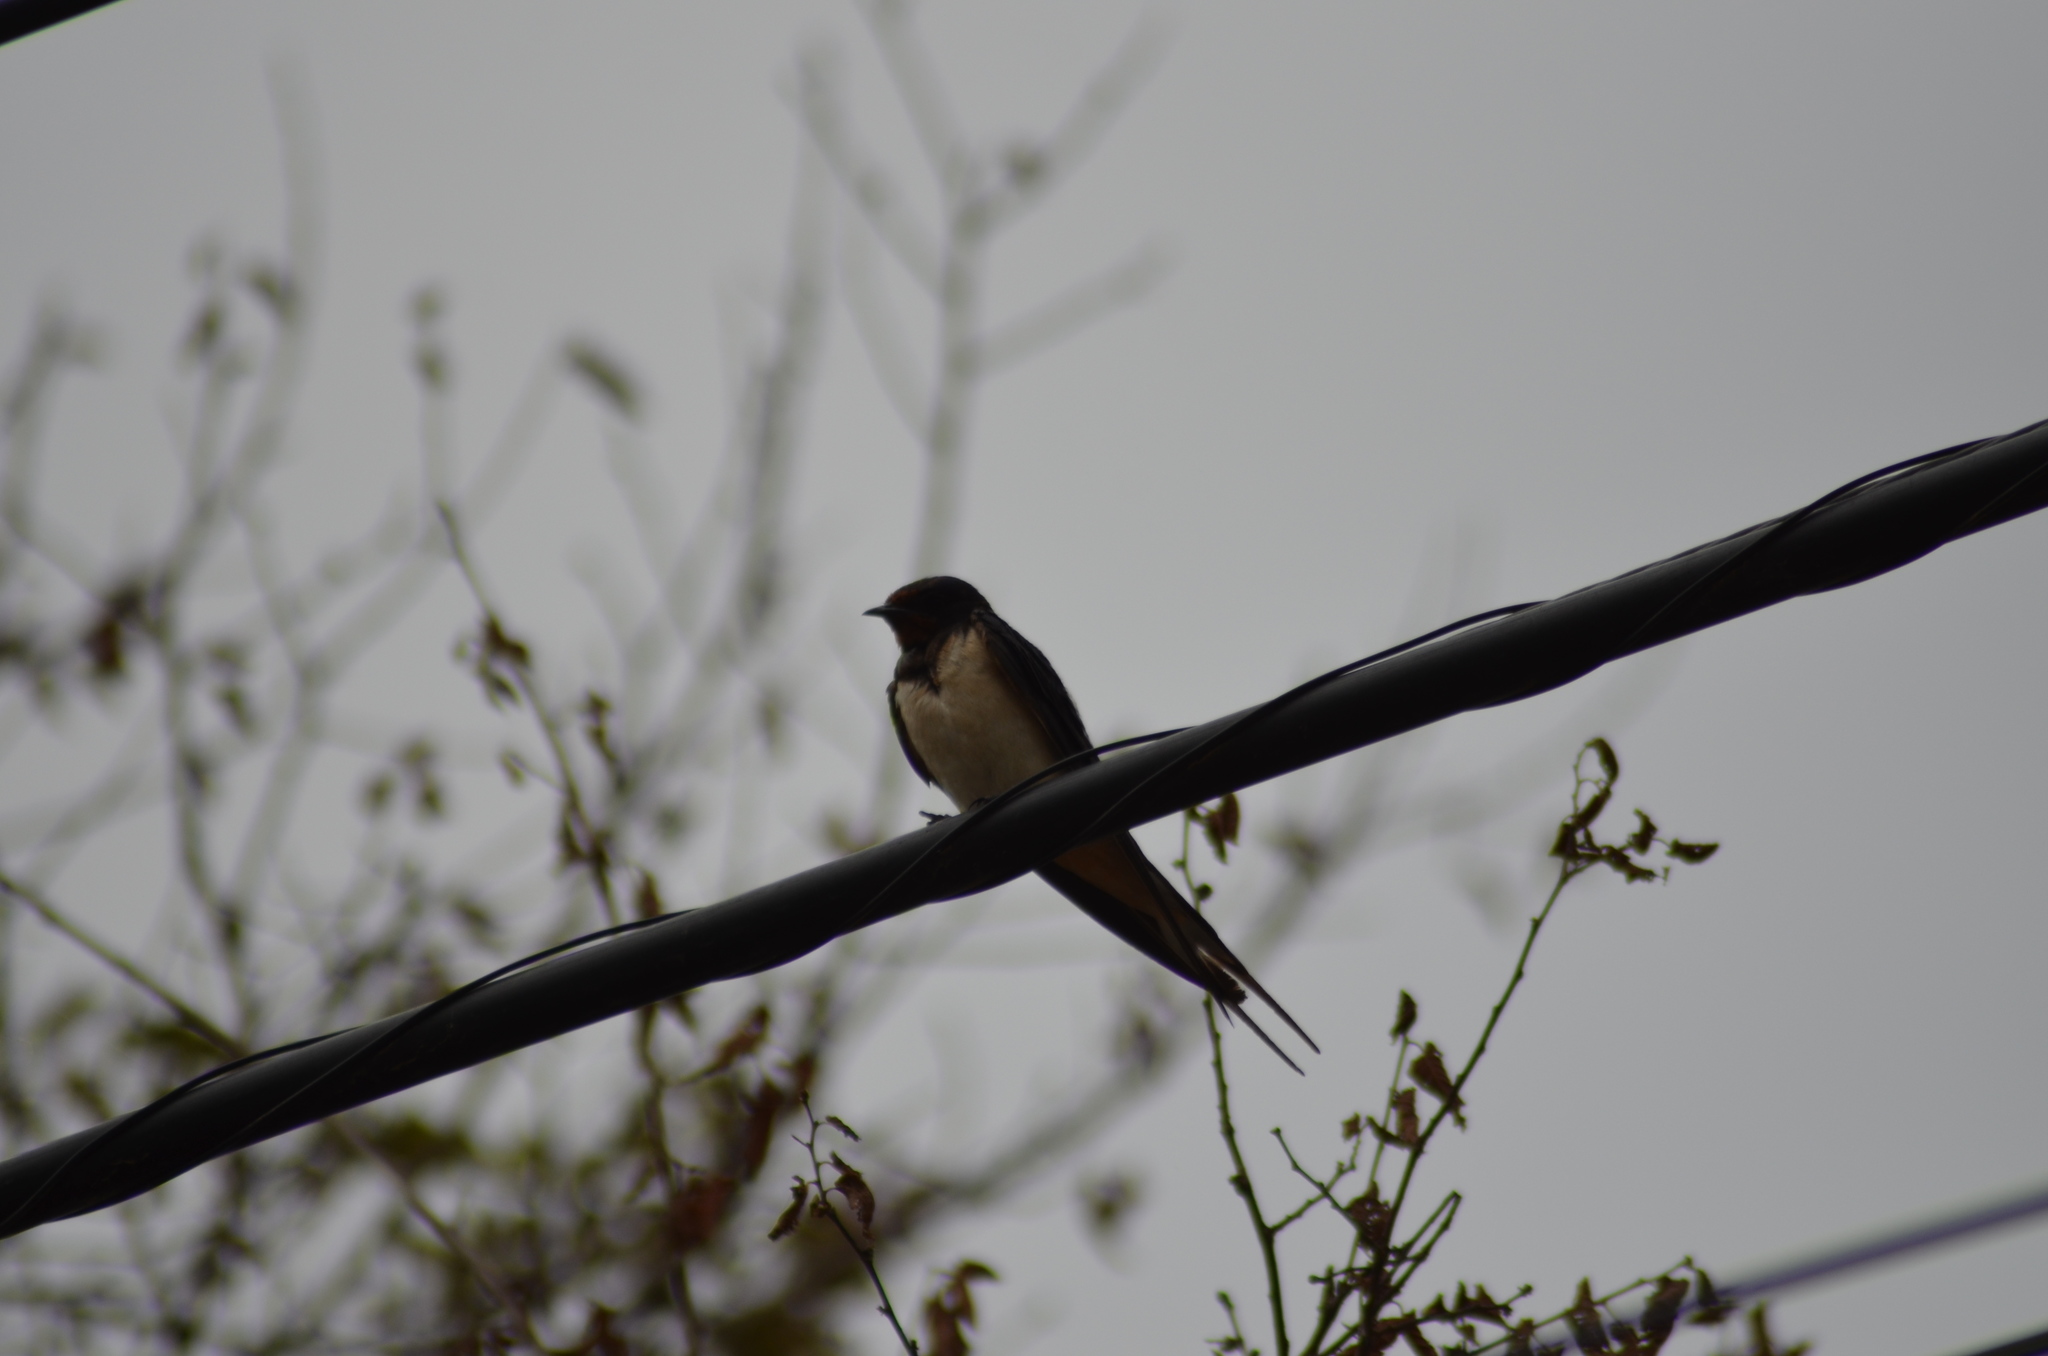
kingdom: Animalia
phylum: Chordata
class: Aves
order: Passeriformes
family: Hirundinidae
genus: Hirundo
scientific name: Hirundo rustica
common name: Barn swallow
